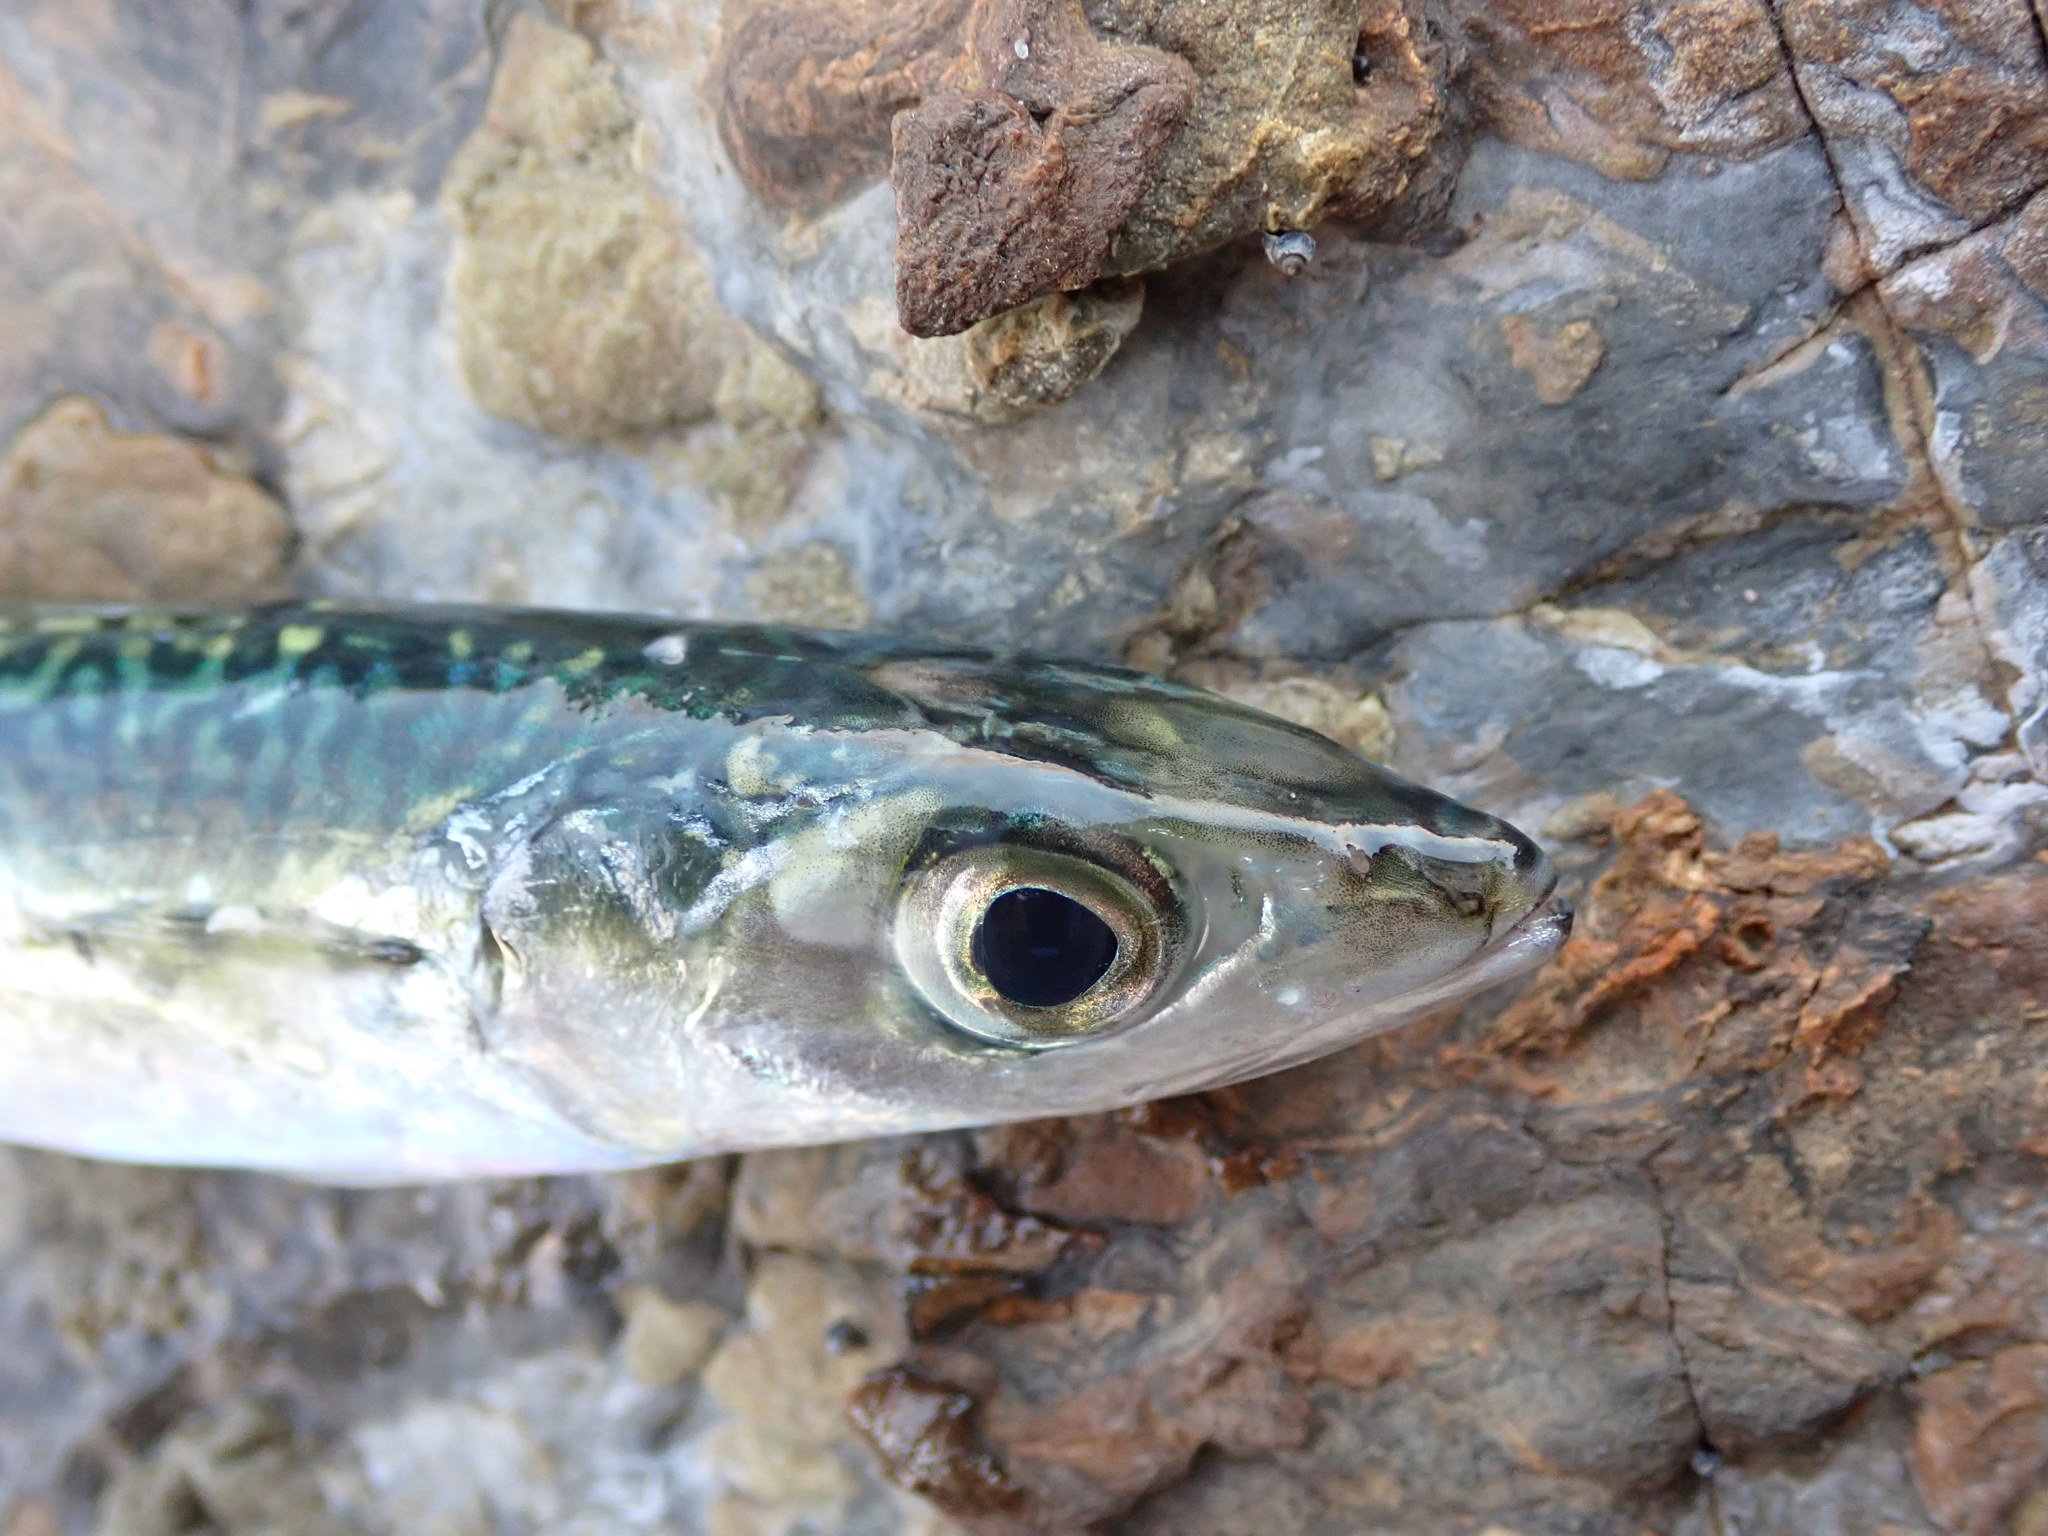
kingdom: Animalia
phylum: Chordata
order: Perciformes
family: Scombridae
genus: Scomber
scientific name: Scomber australasicus
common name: Blue mackerel
